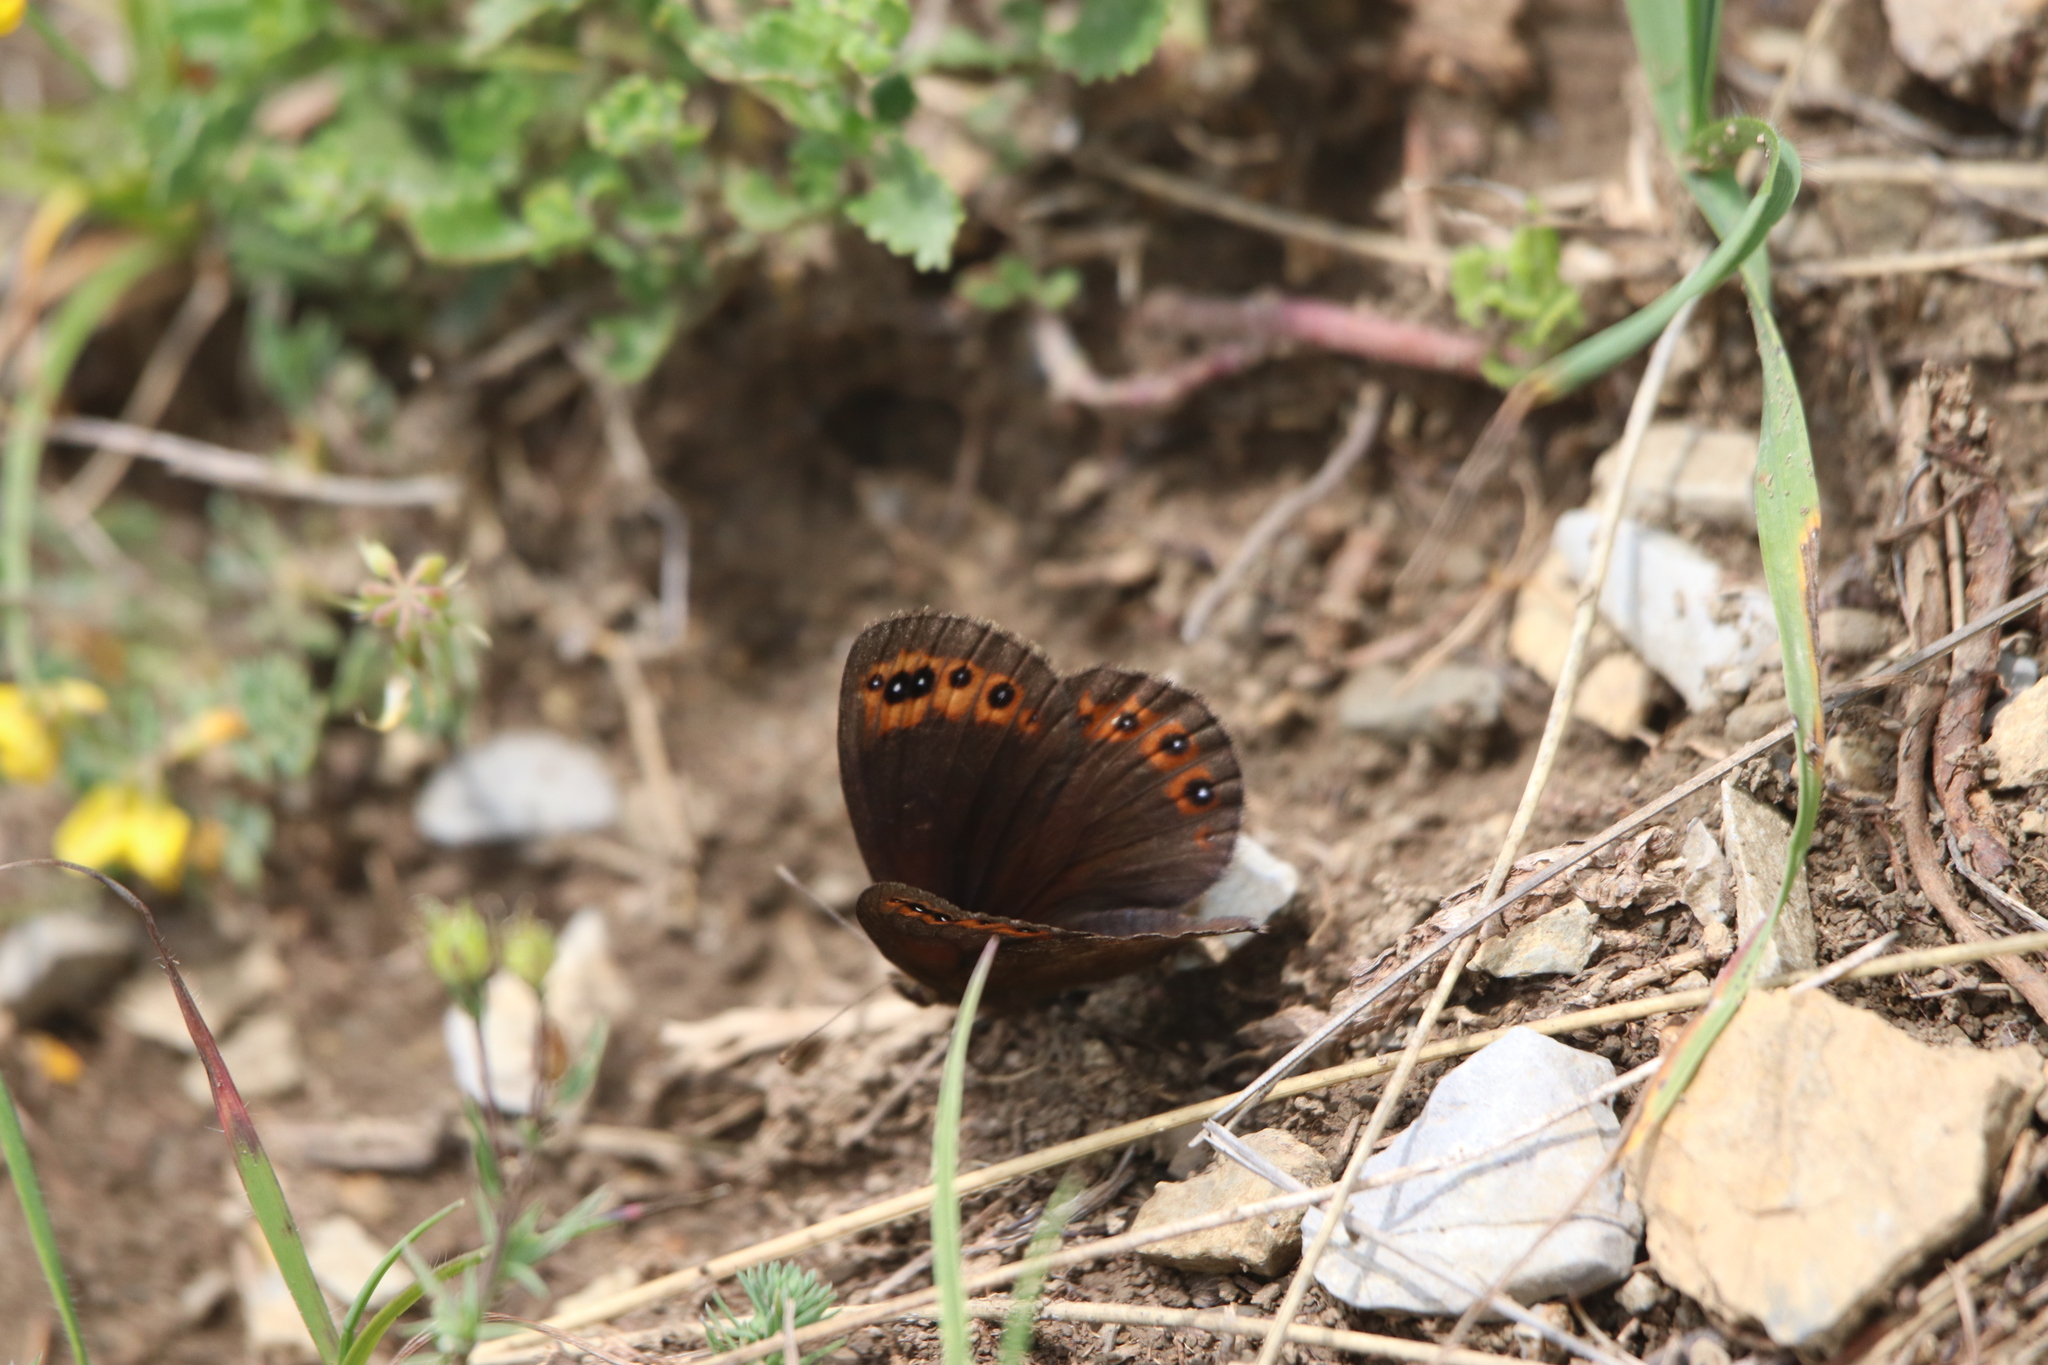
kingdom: Animalia
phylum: Arthropoda
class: Insecta
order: Lepidoptera
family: Nymphalidae
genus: Erebia
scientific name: Erebia triarius
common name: De prunner’s ringlet
